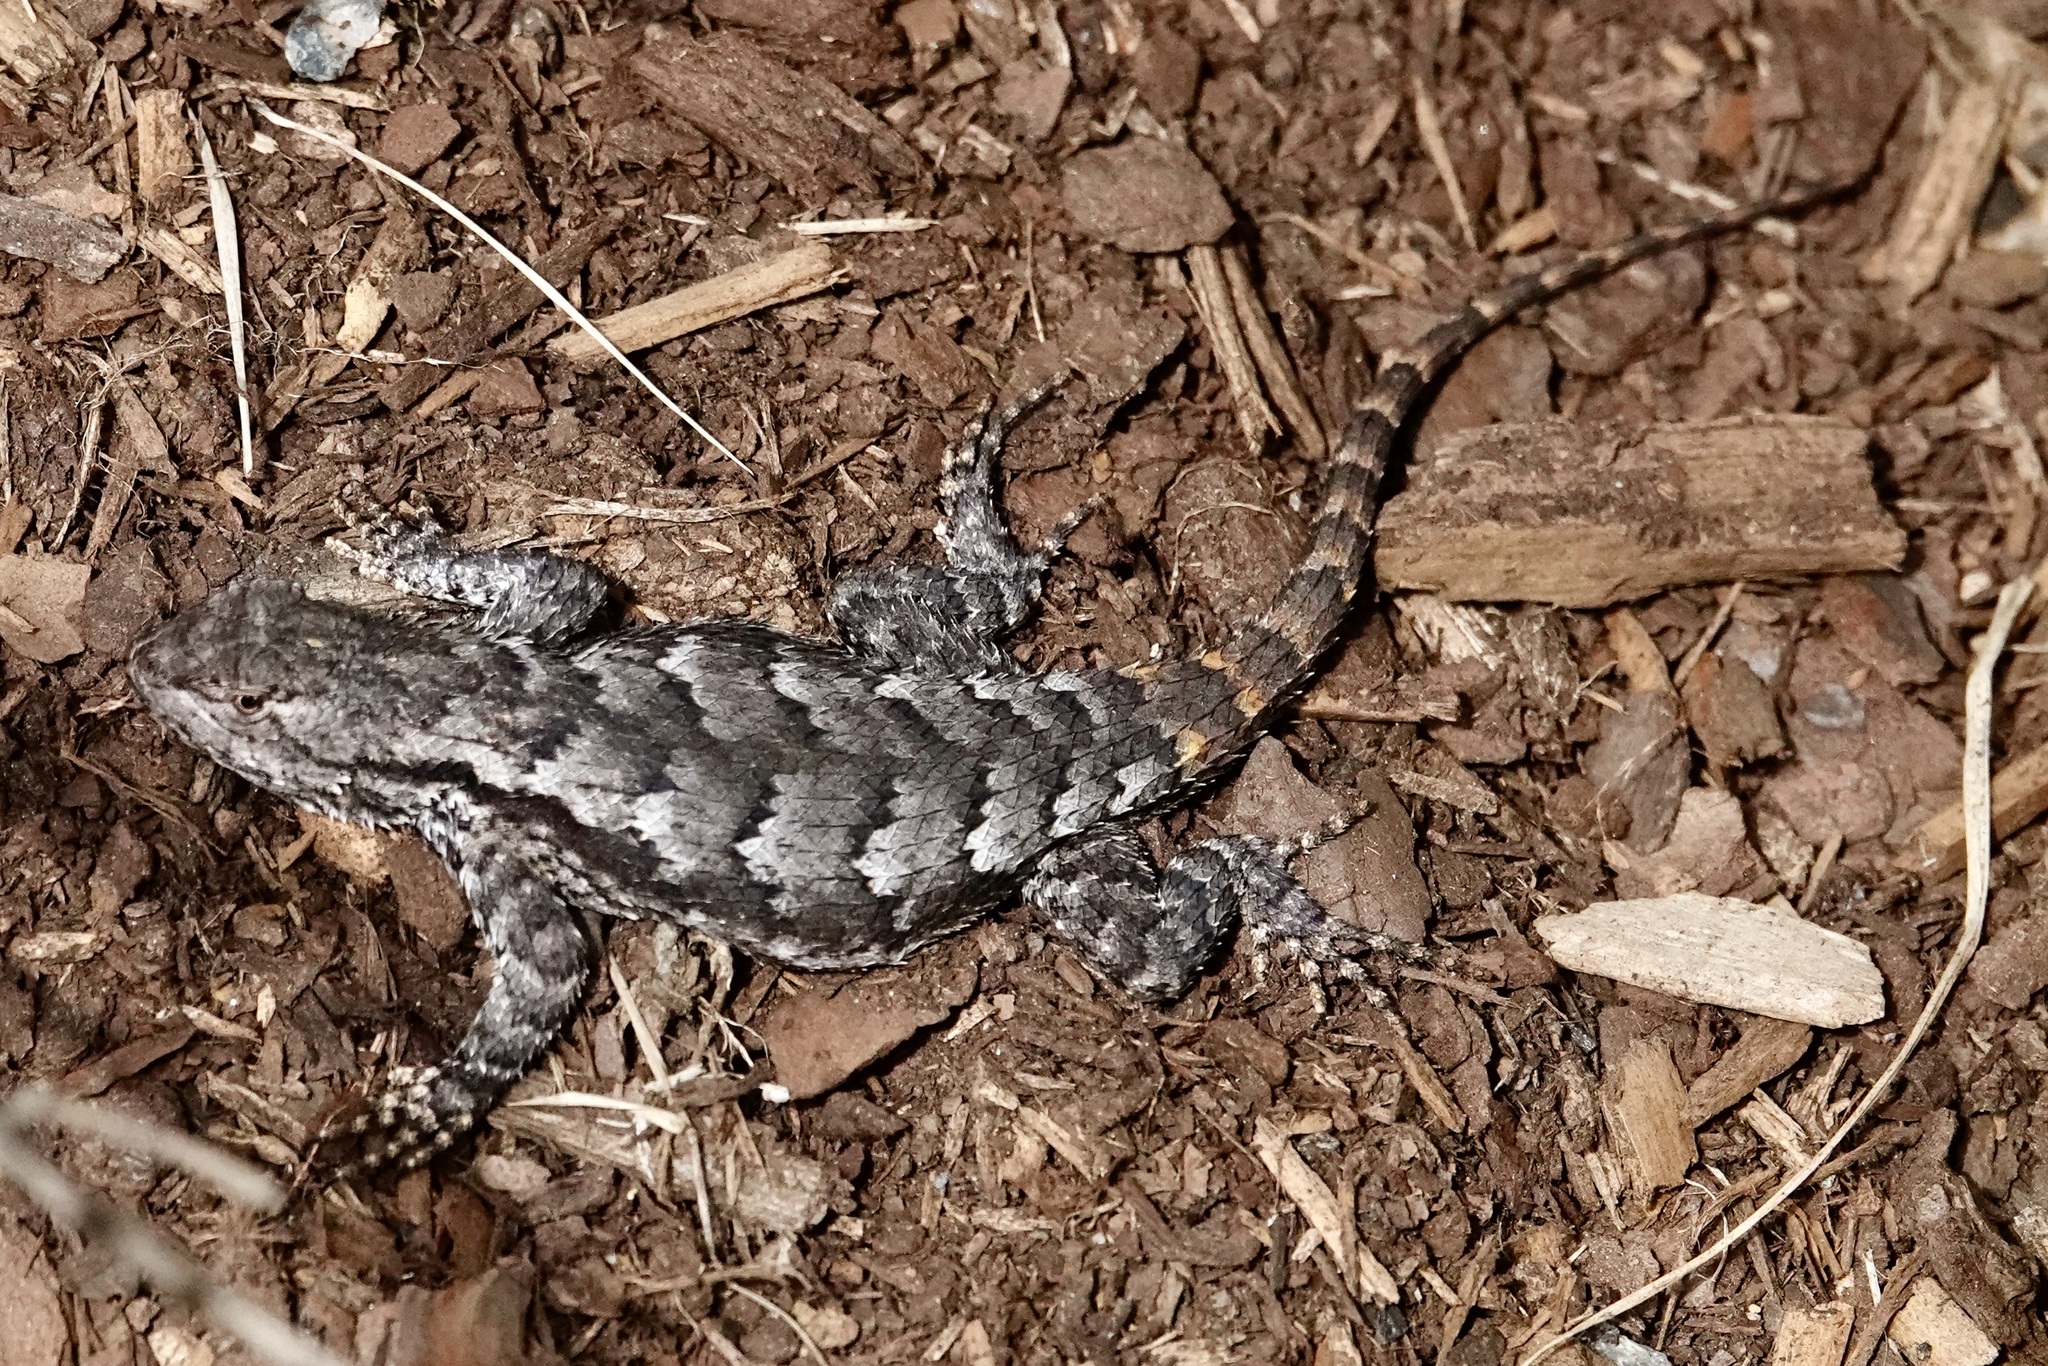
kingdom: Animalia
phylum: Chordata
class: Squamata
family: Phrynosomatidae
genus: Sceloporus
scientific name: Sceloporus undulatus
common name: Eastern fence lizard
